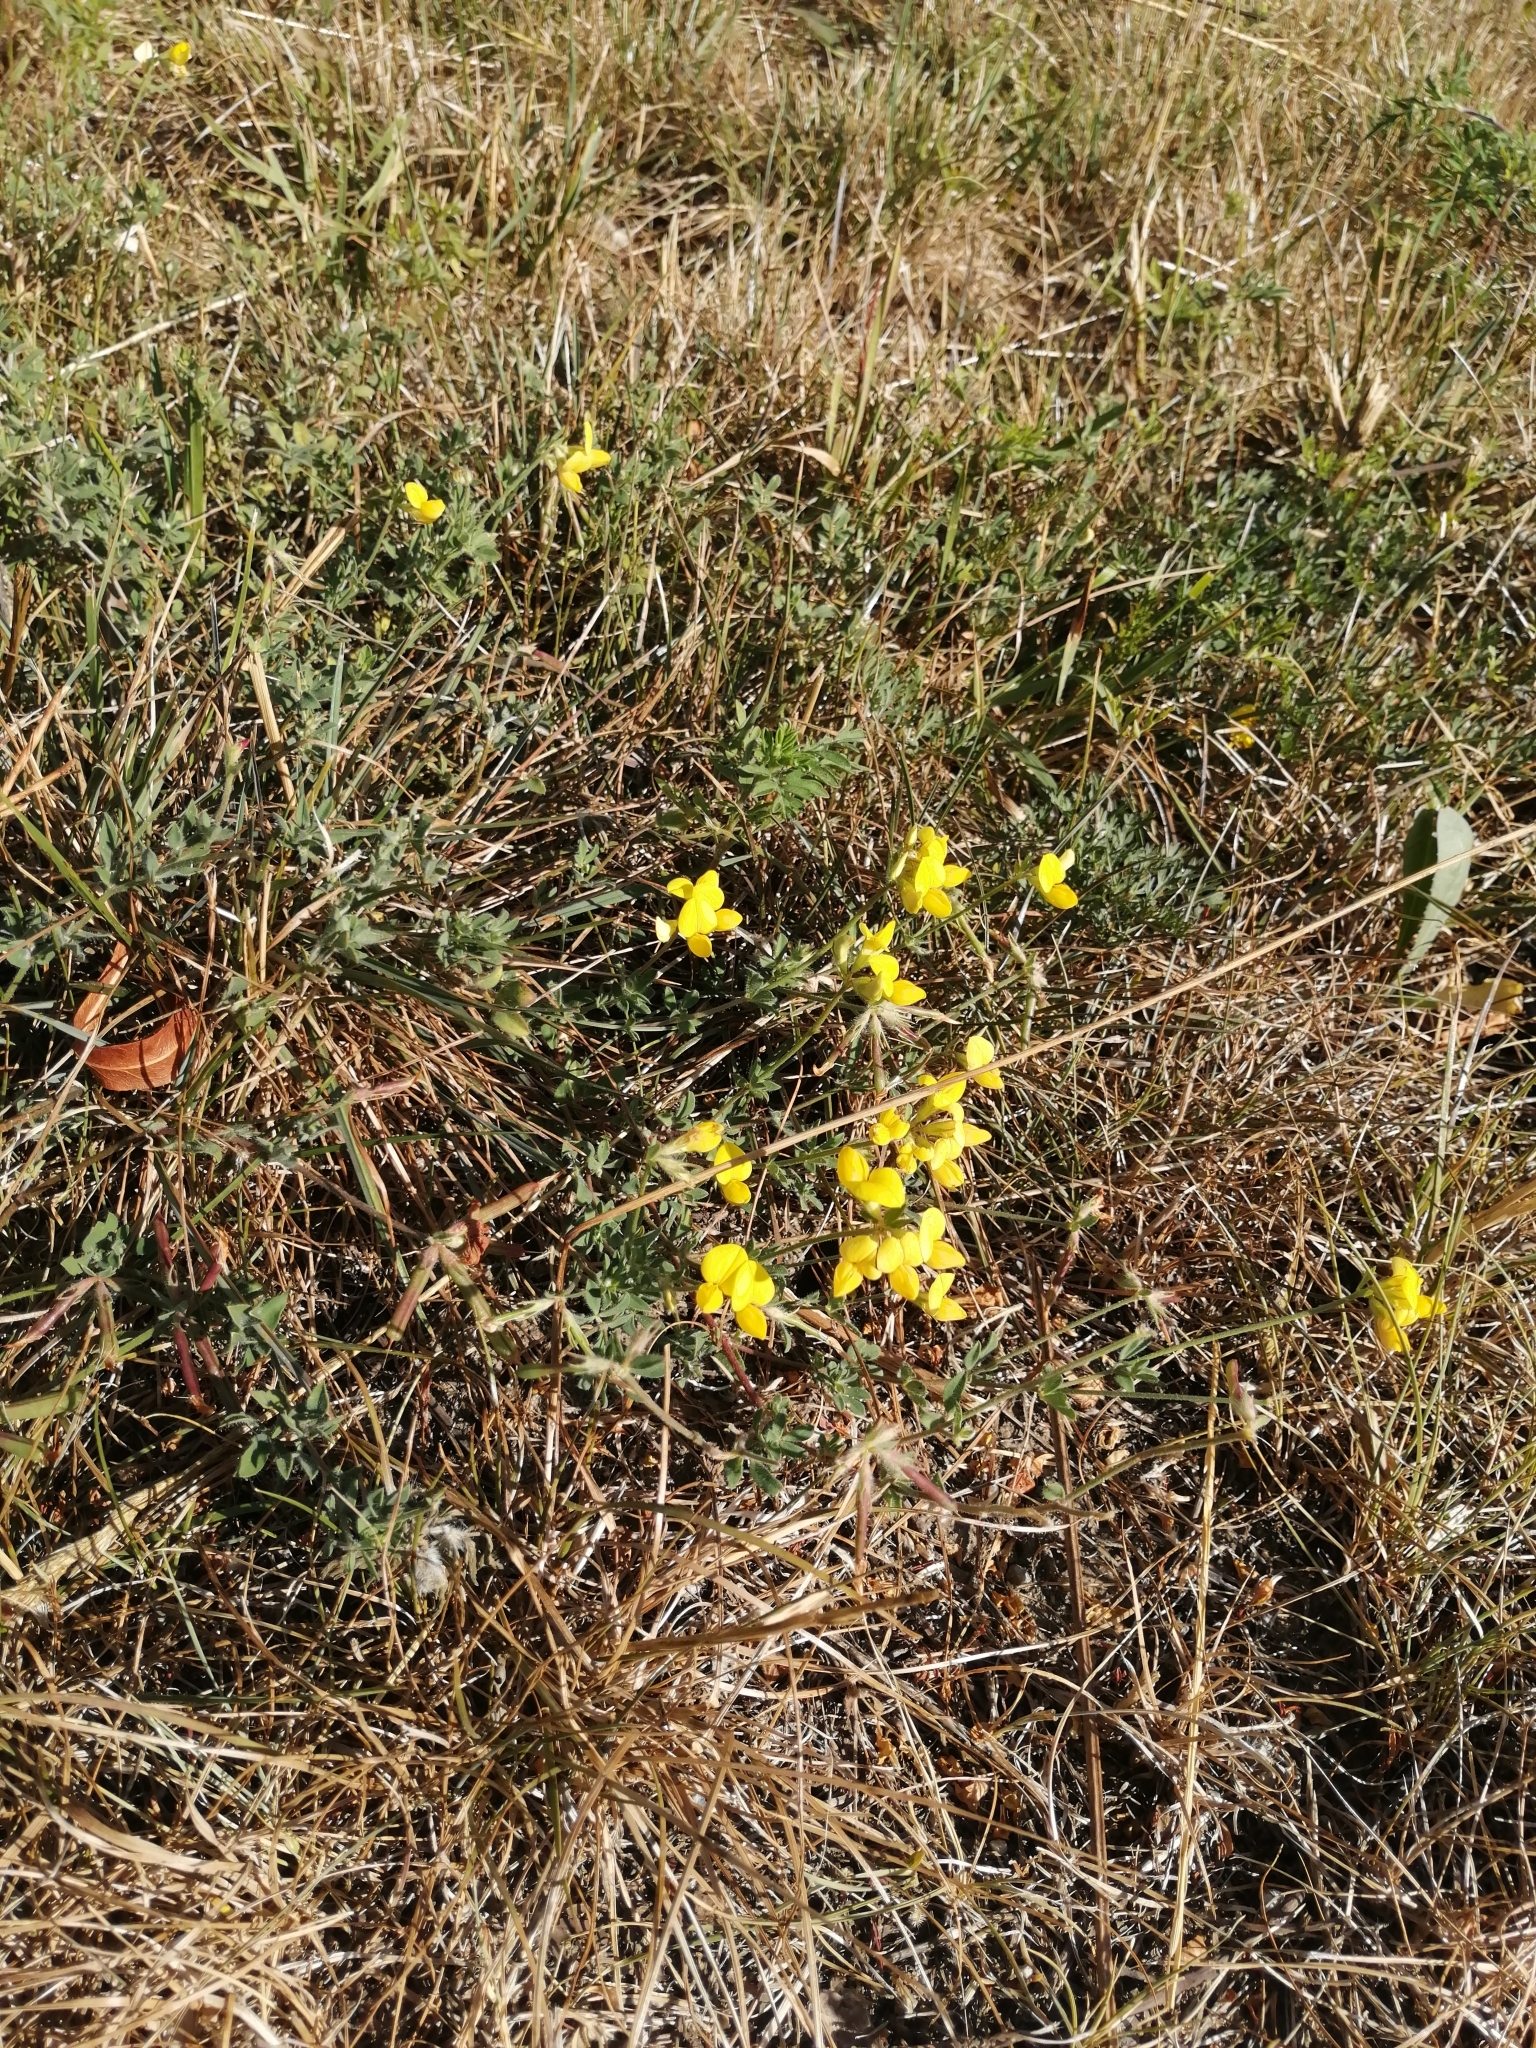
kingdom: Plantae
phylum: Tracheophyta
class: Magnoliopsida
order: Fabales
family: Fabaceae
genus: Lotus
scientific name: Lotus corniculatus
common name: Common bird's-foot-trefoil
